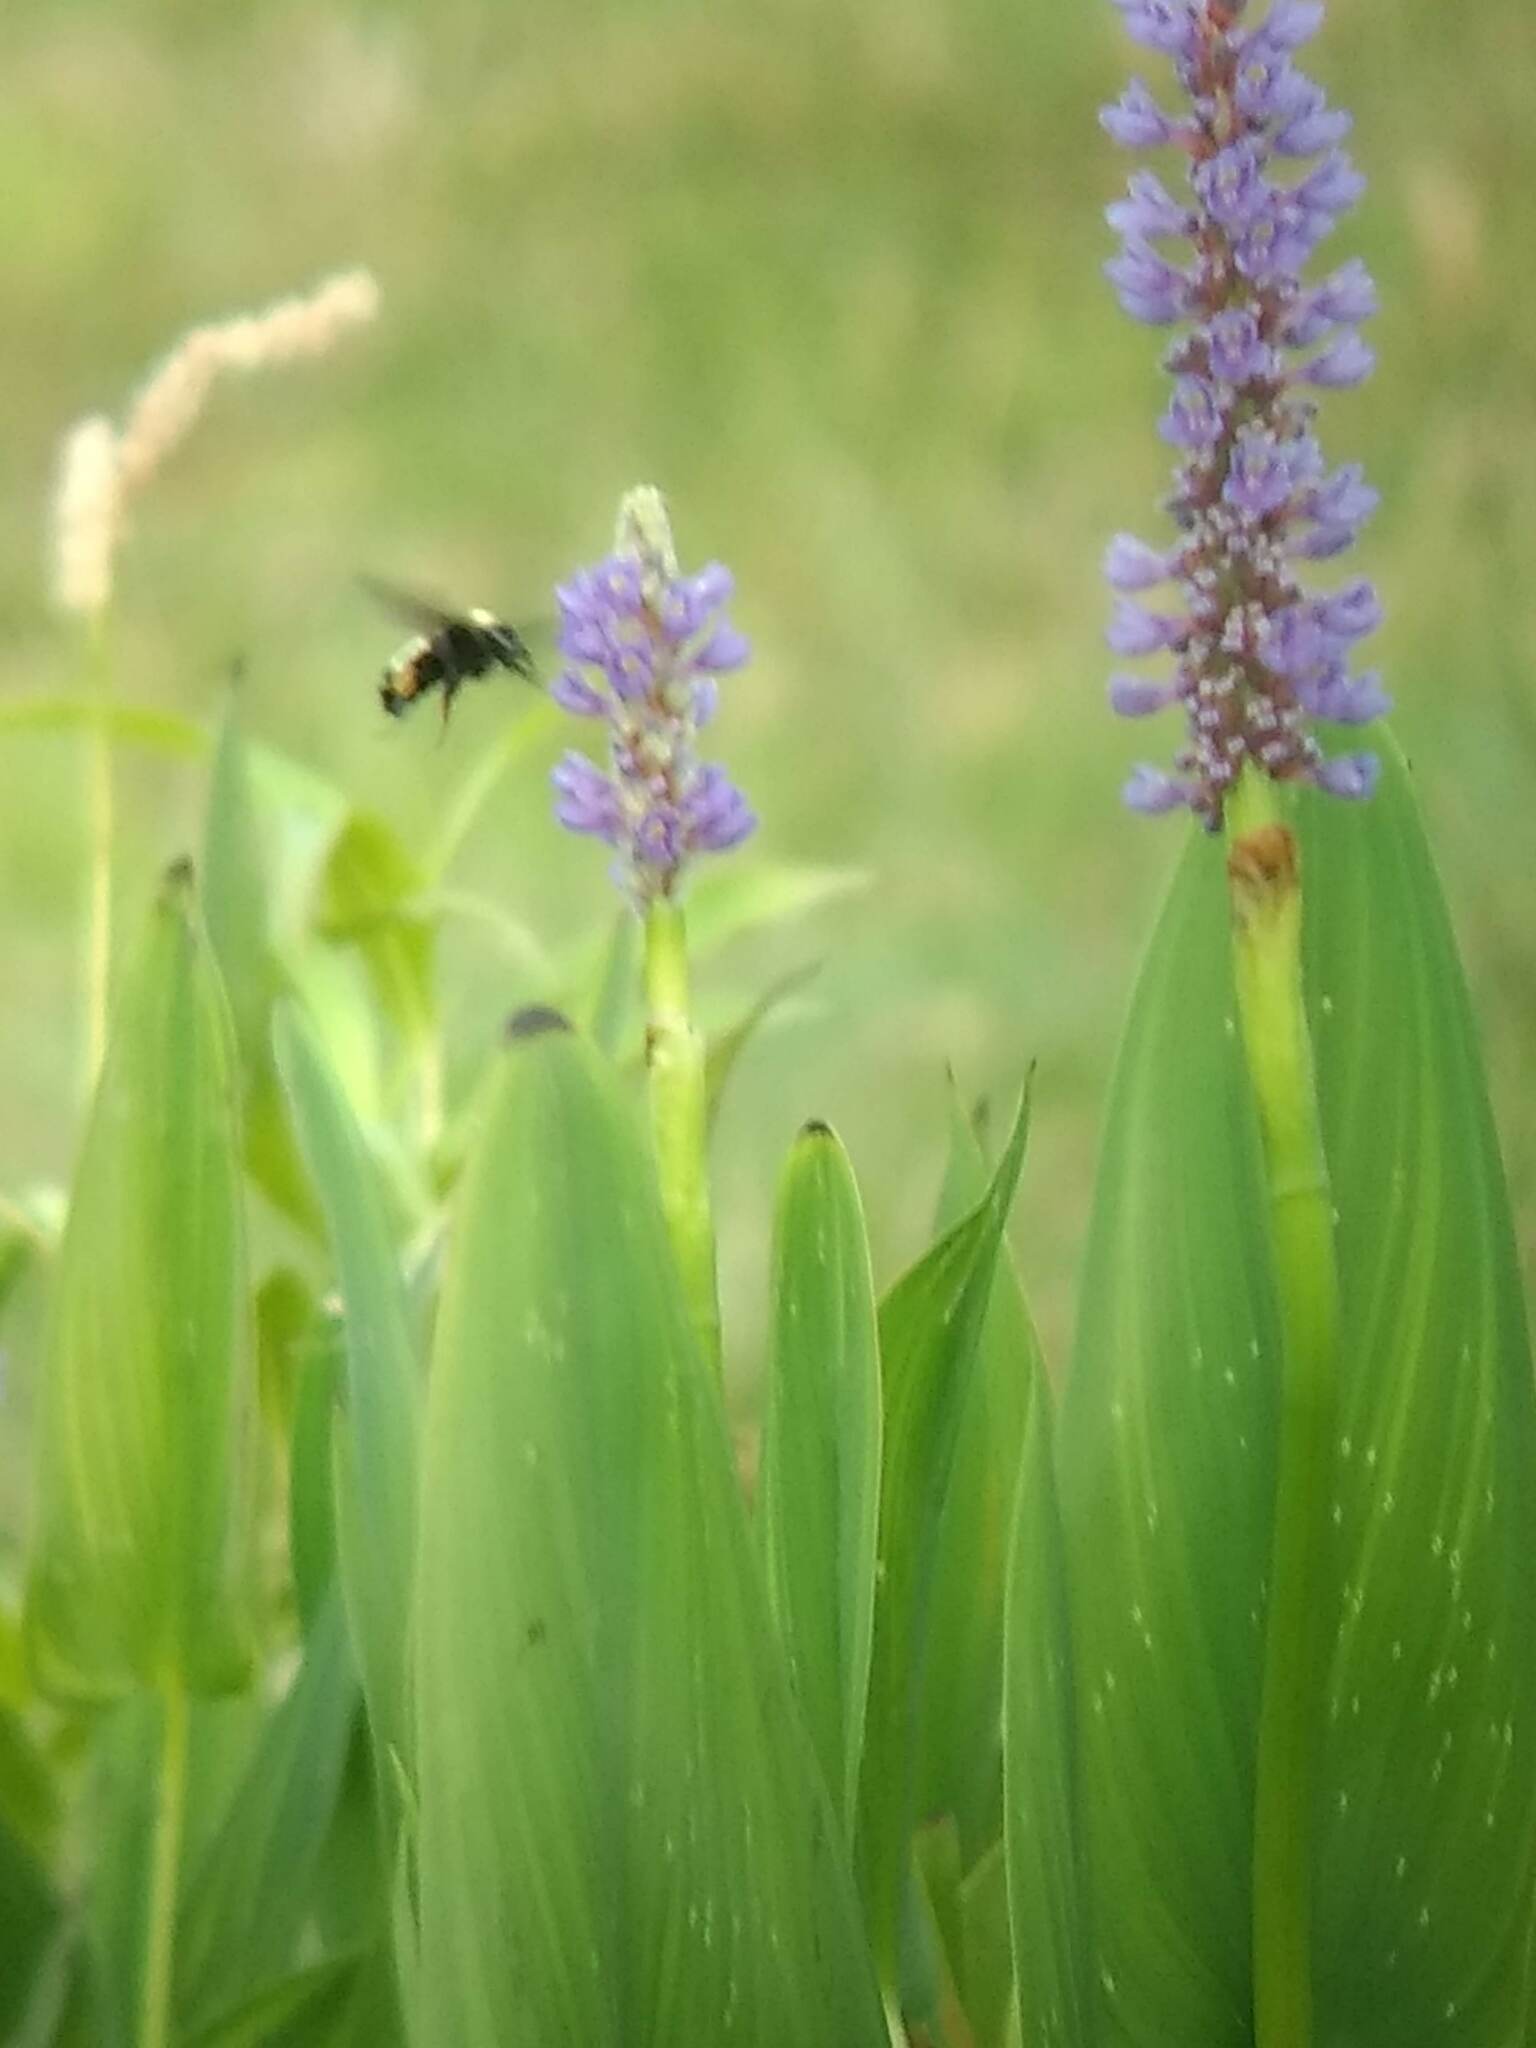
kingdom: Animalia
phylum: Arthropoda
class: Insecta
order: Hymenoptera
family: Apidae
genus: Bombus
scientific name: Bombus pensylvanicus
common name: Bumble bee
